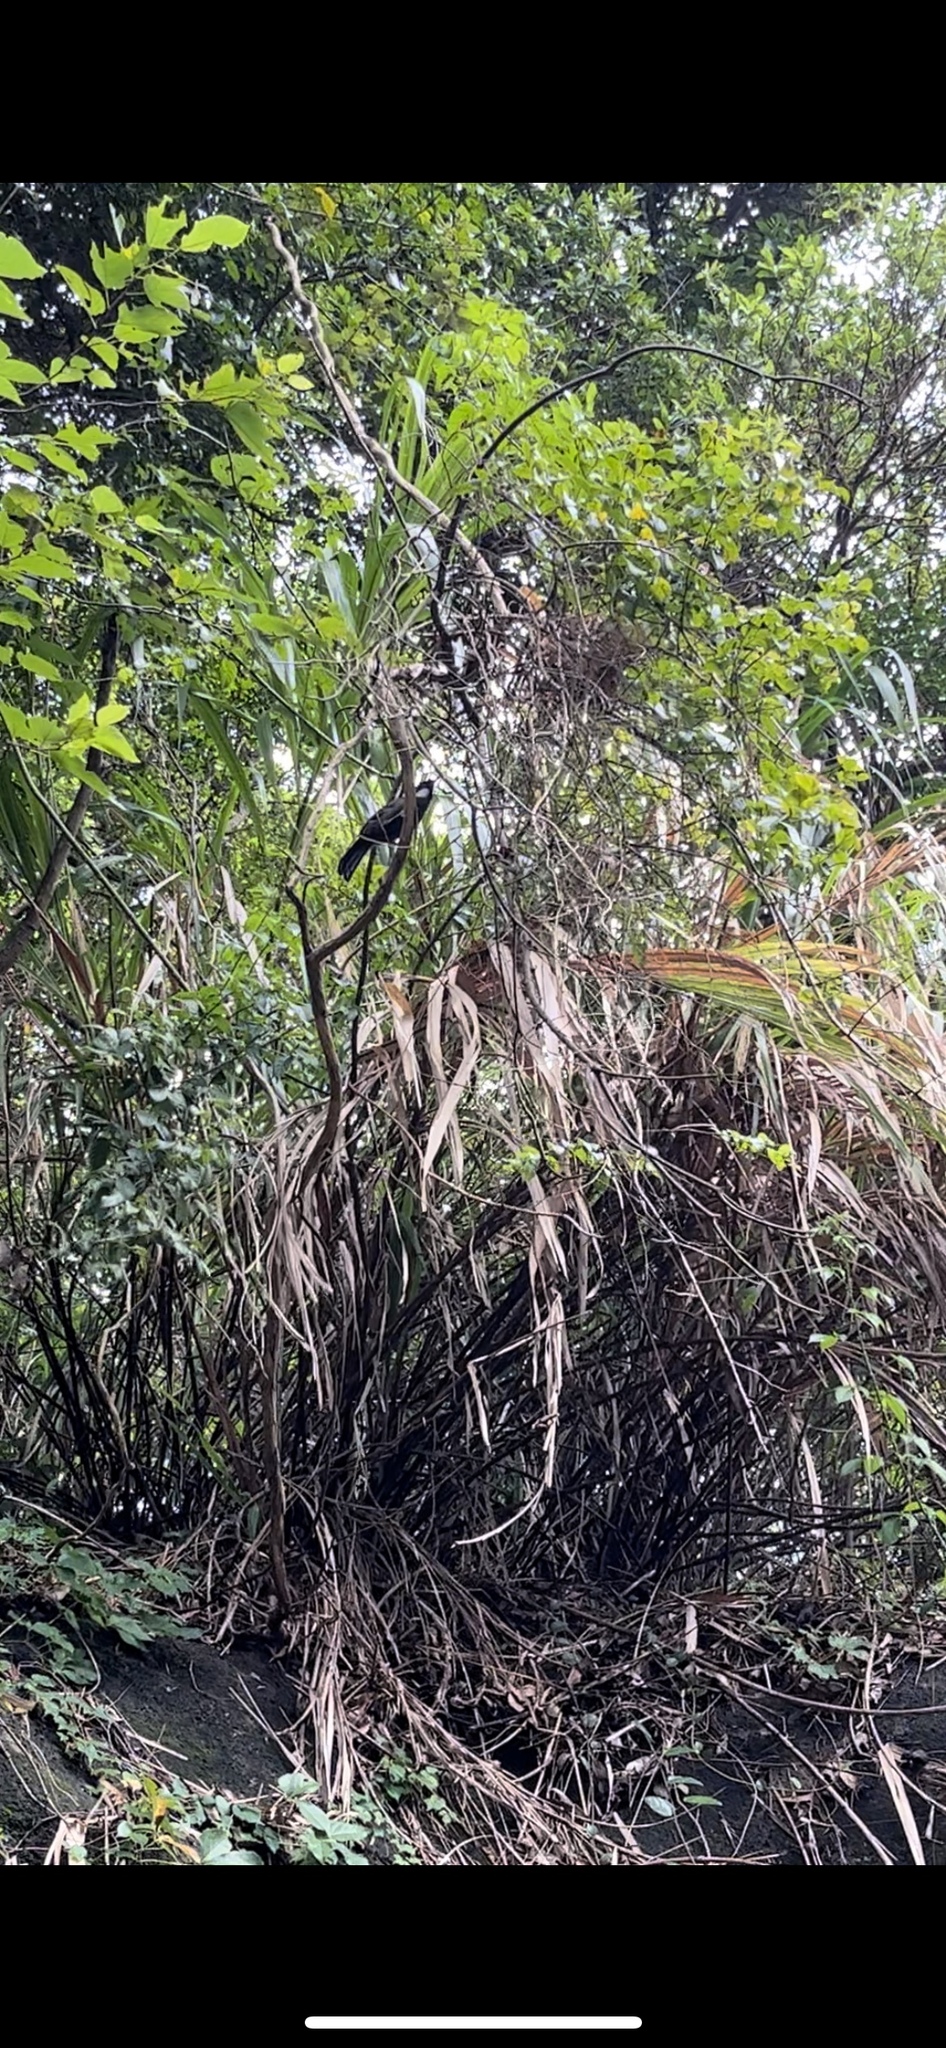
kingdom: Animalia
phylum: Chordata
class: Aves
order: Passeriformes
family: Leiothrichidae
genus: Garrulax
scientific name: Garrulax chinensis
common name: Black-throated laughingthrush
